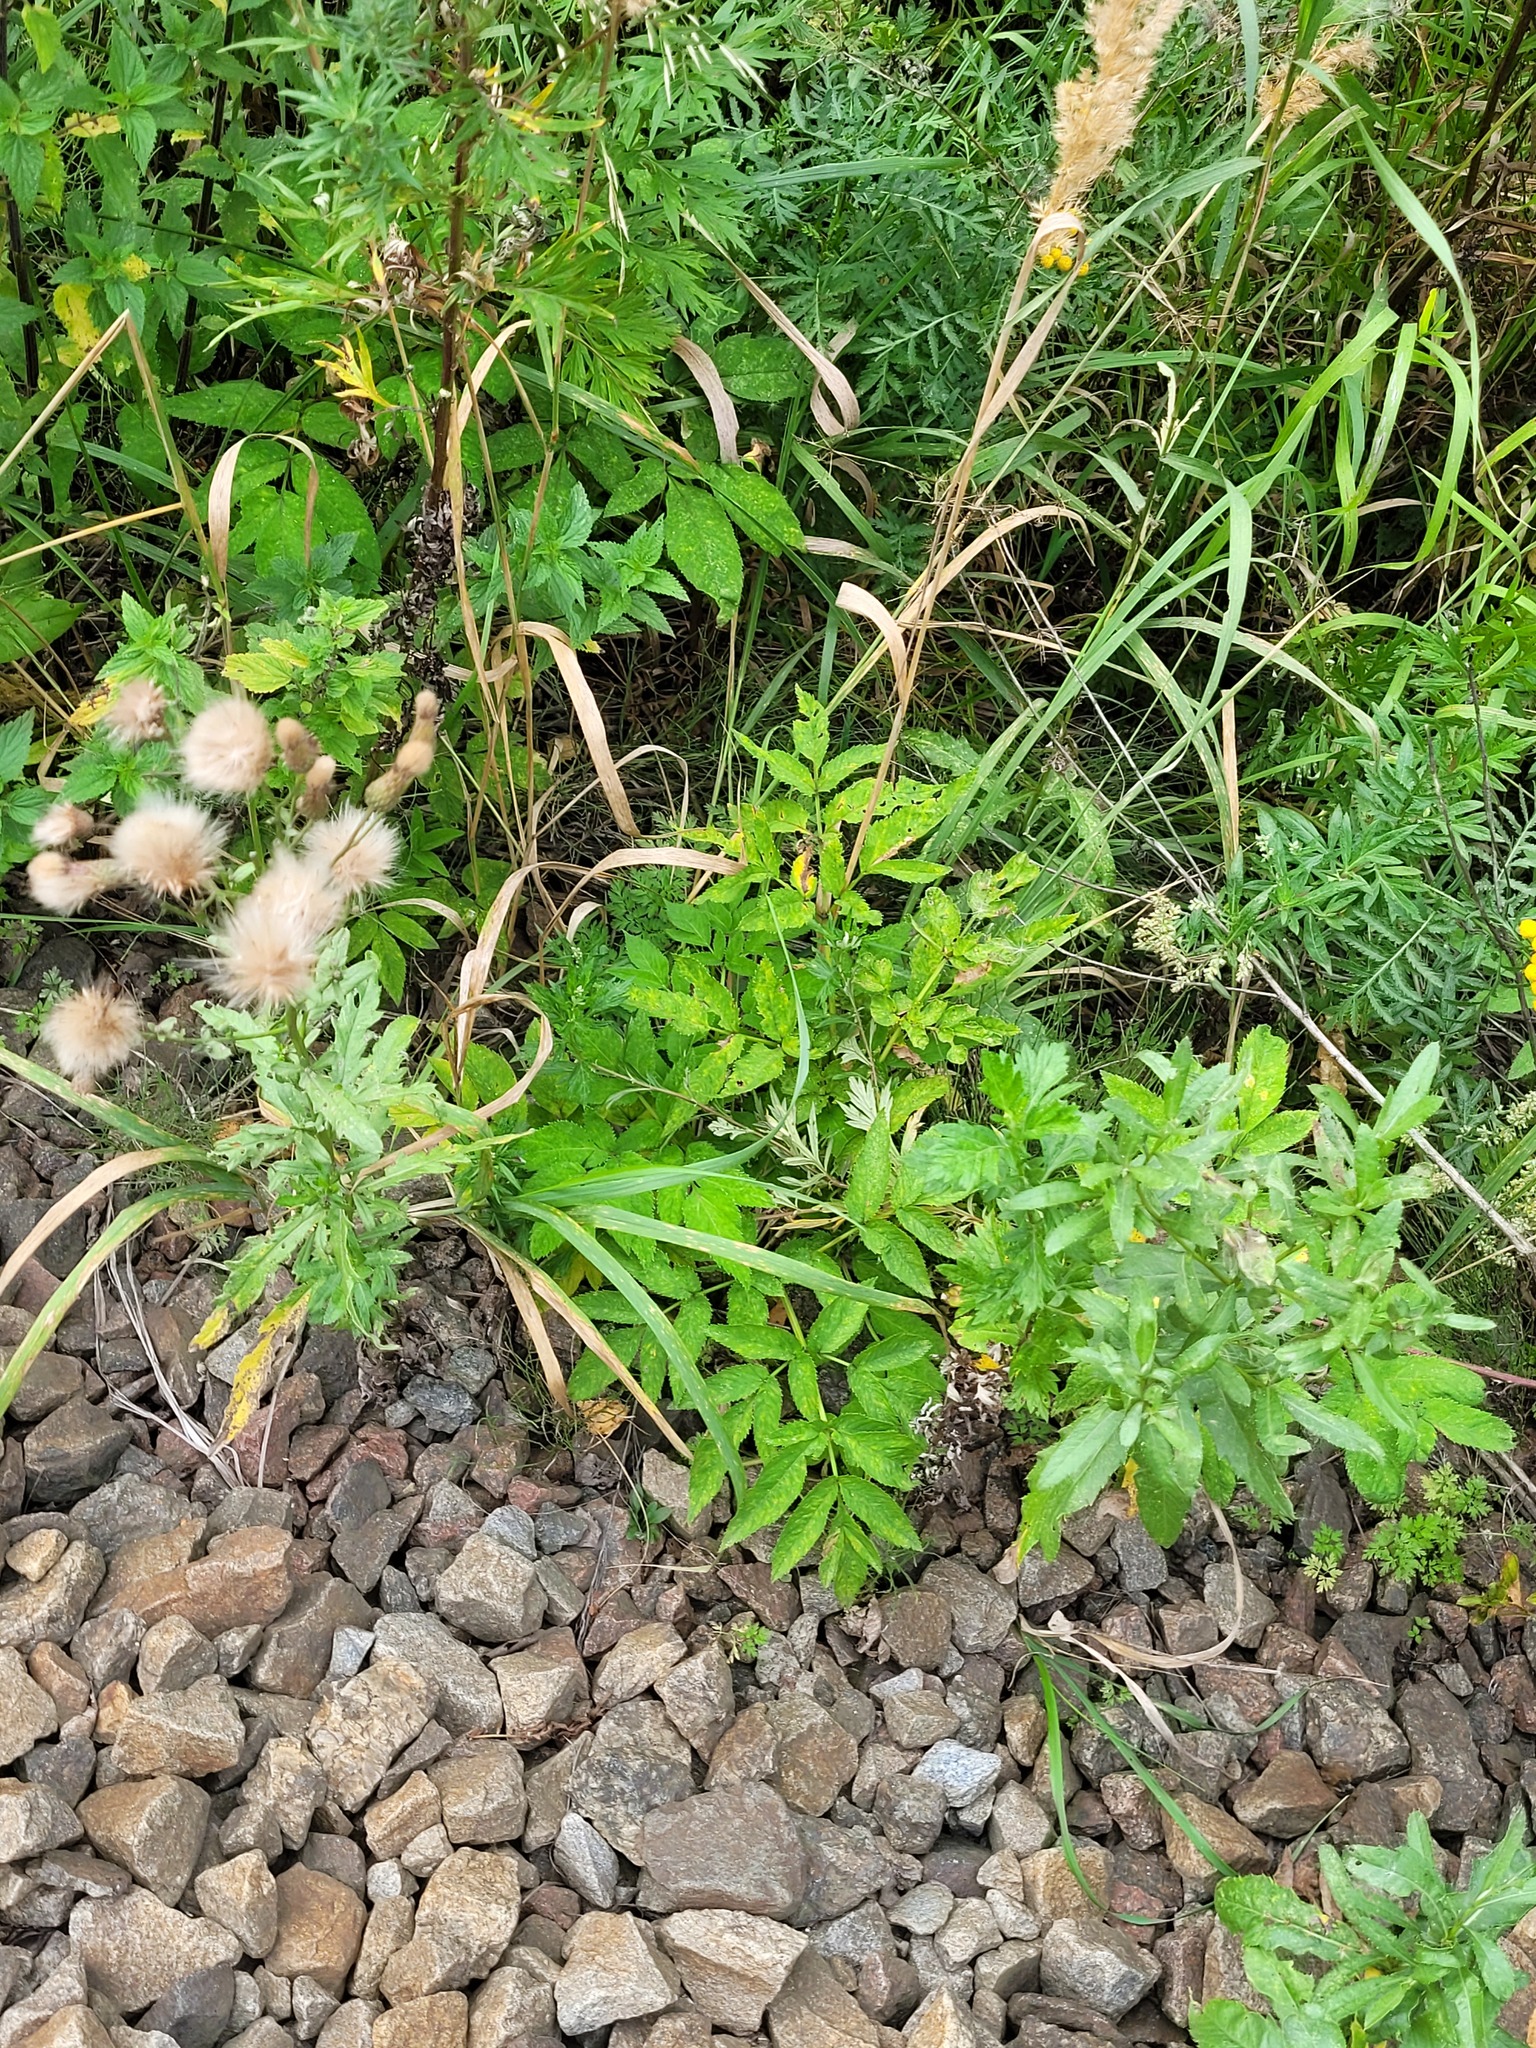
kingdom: Plantae
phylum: Tracheophyta
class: Magnoliopsida
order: Apiales
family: Apiaceae
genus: Angelica
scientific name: Angelica sylvestris
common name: Wild angelica
